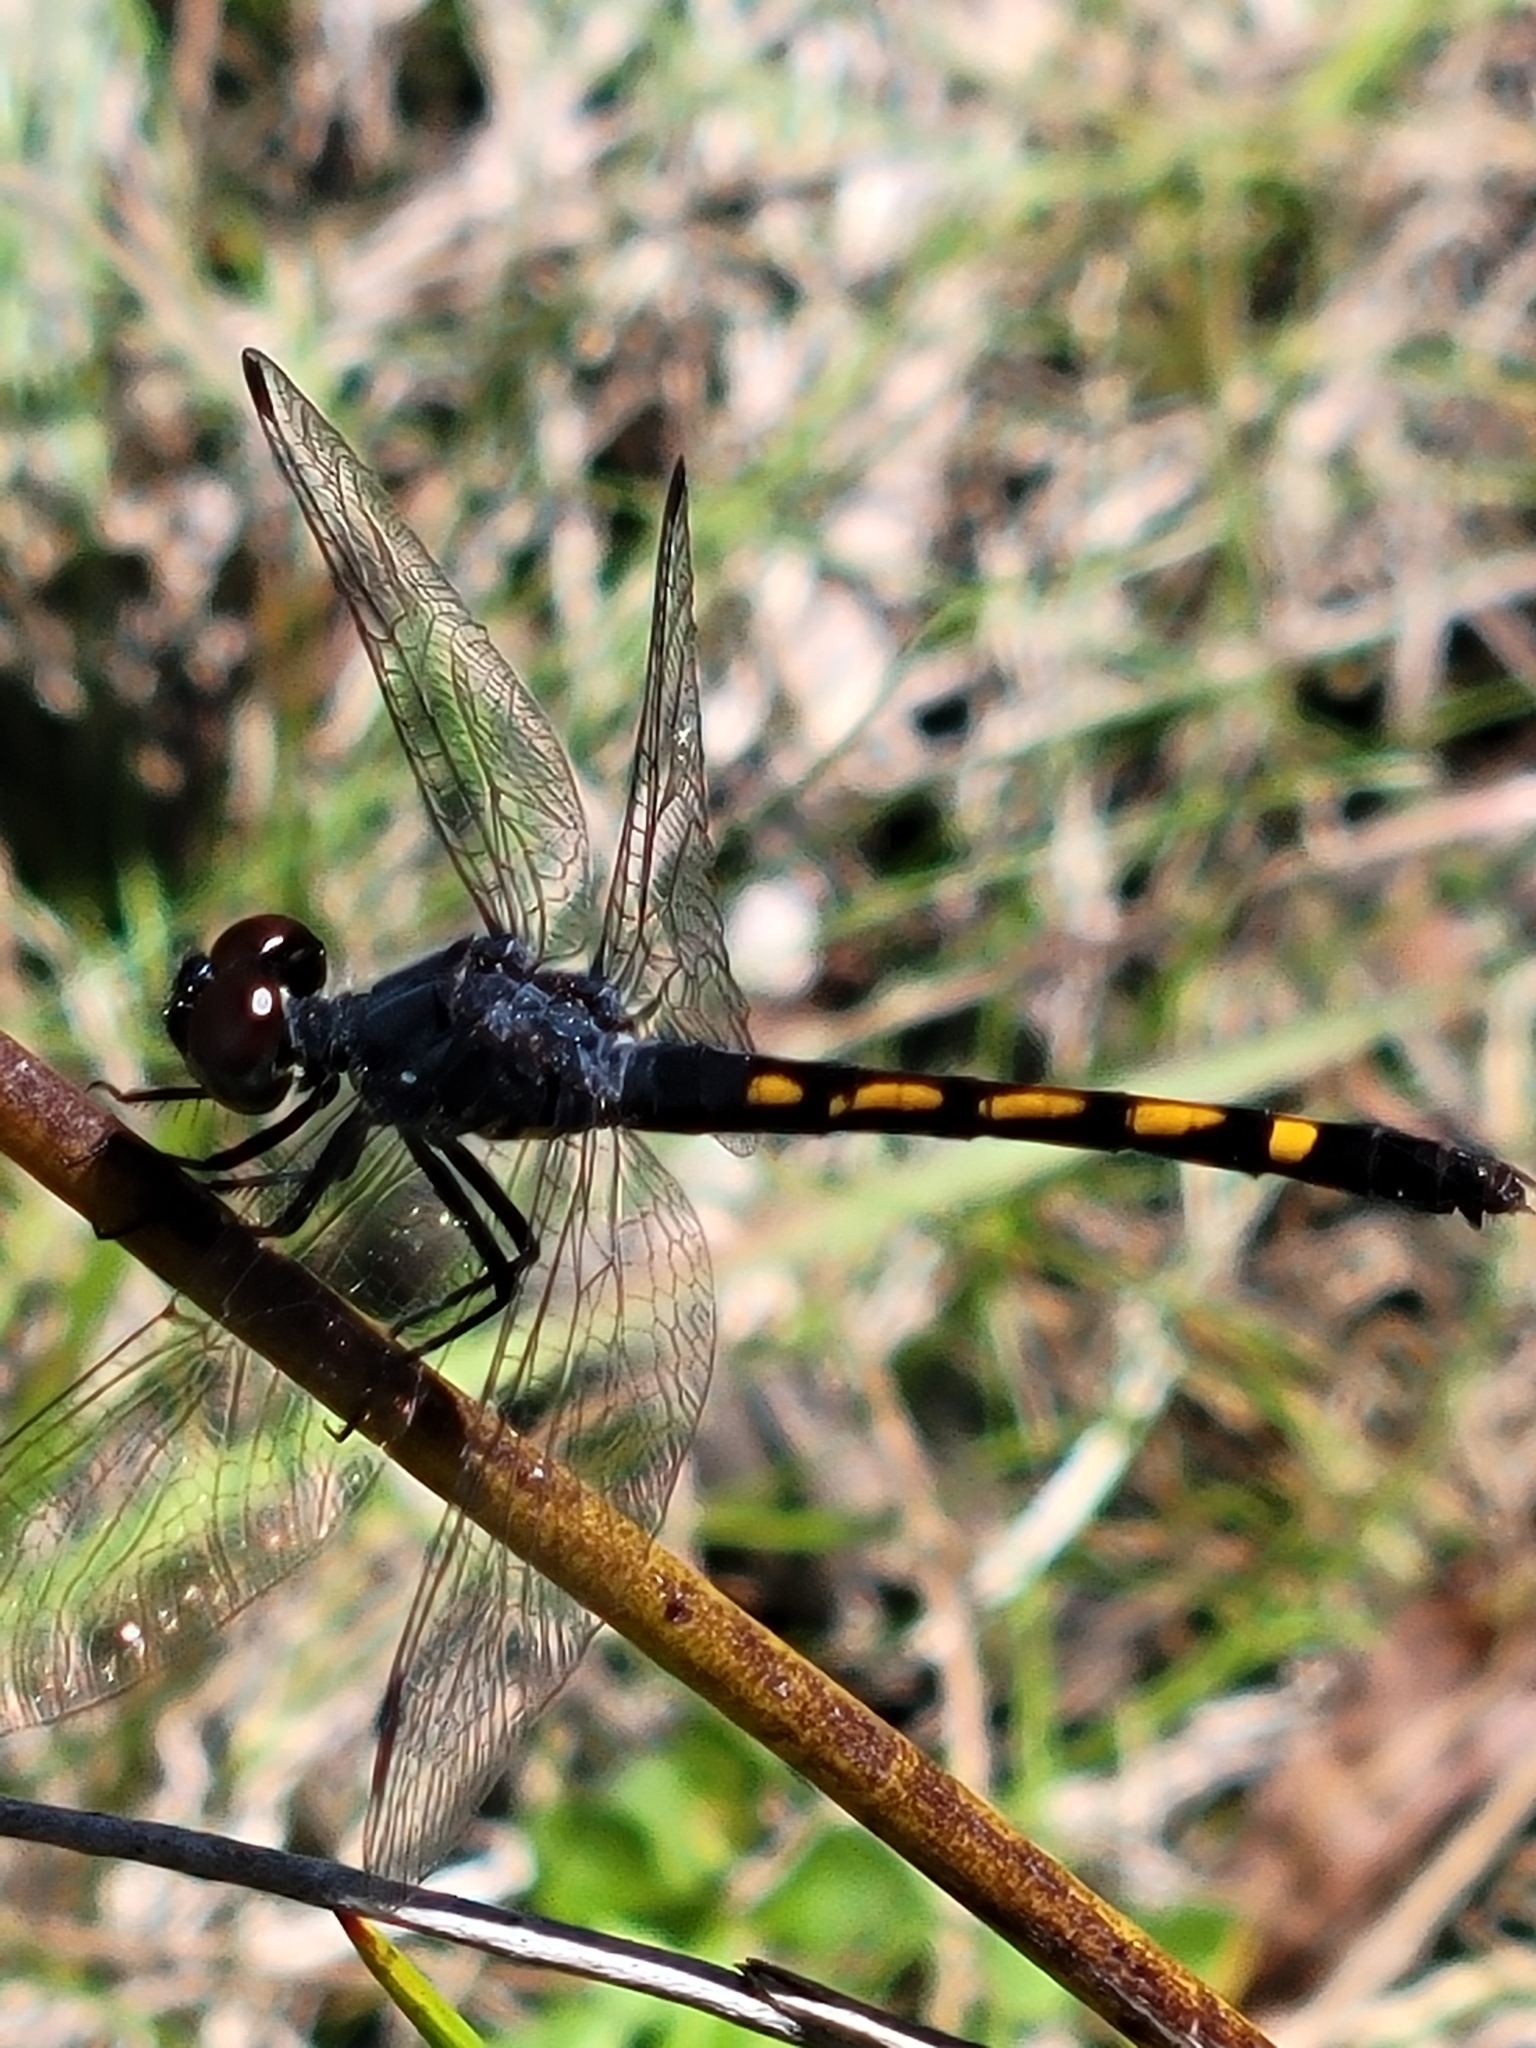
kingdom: Animalia
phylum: Arthropoda
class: Insecta
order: Odonata
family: Libellulidae
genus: Erythrodiplax
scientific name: Erythrodiplax berenice
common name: Seaside dragonlet
